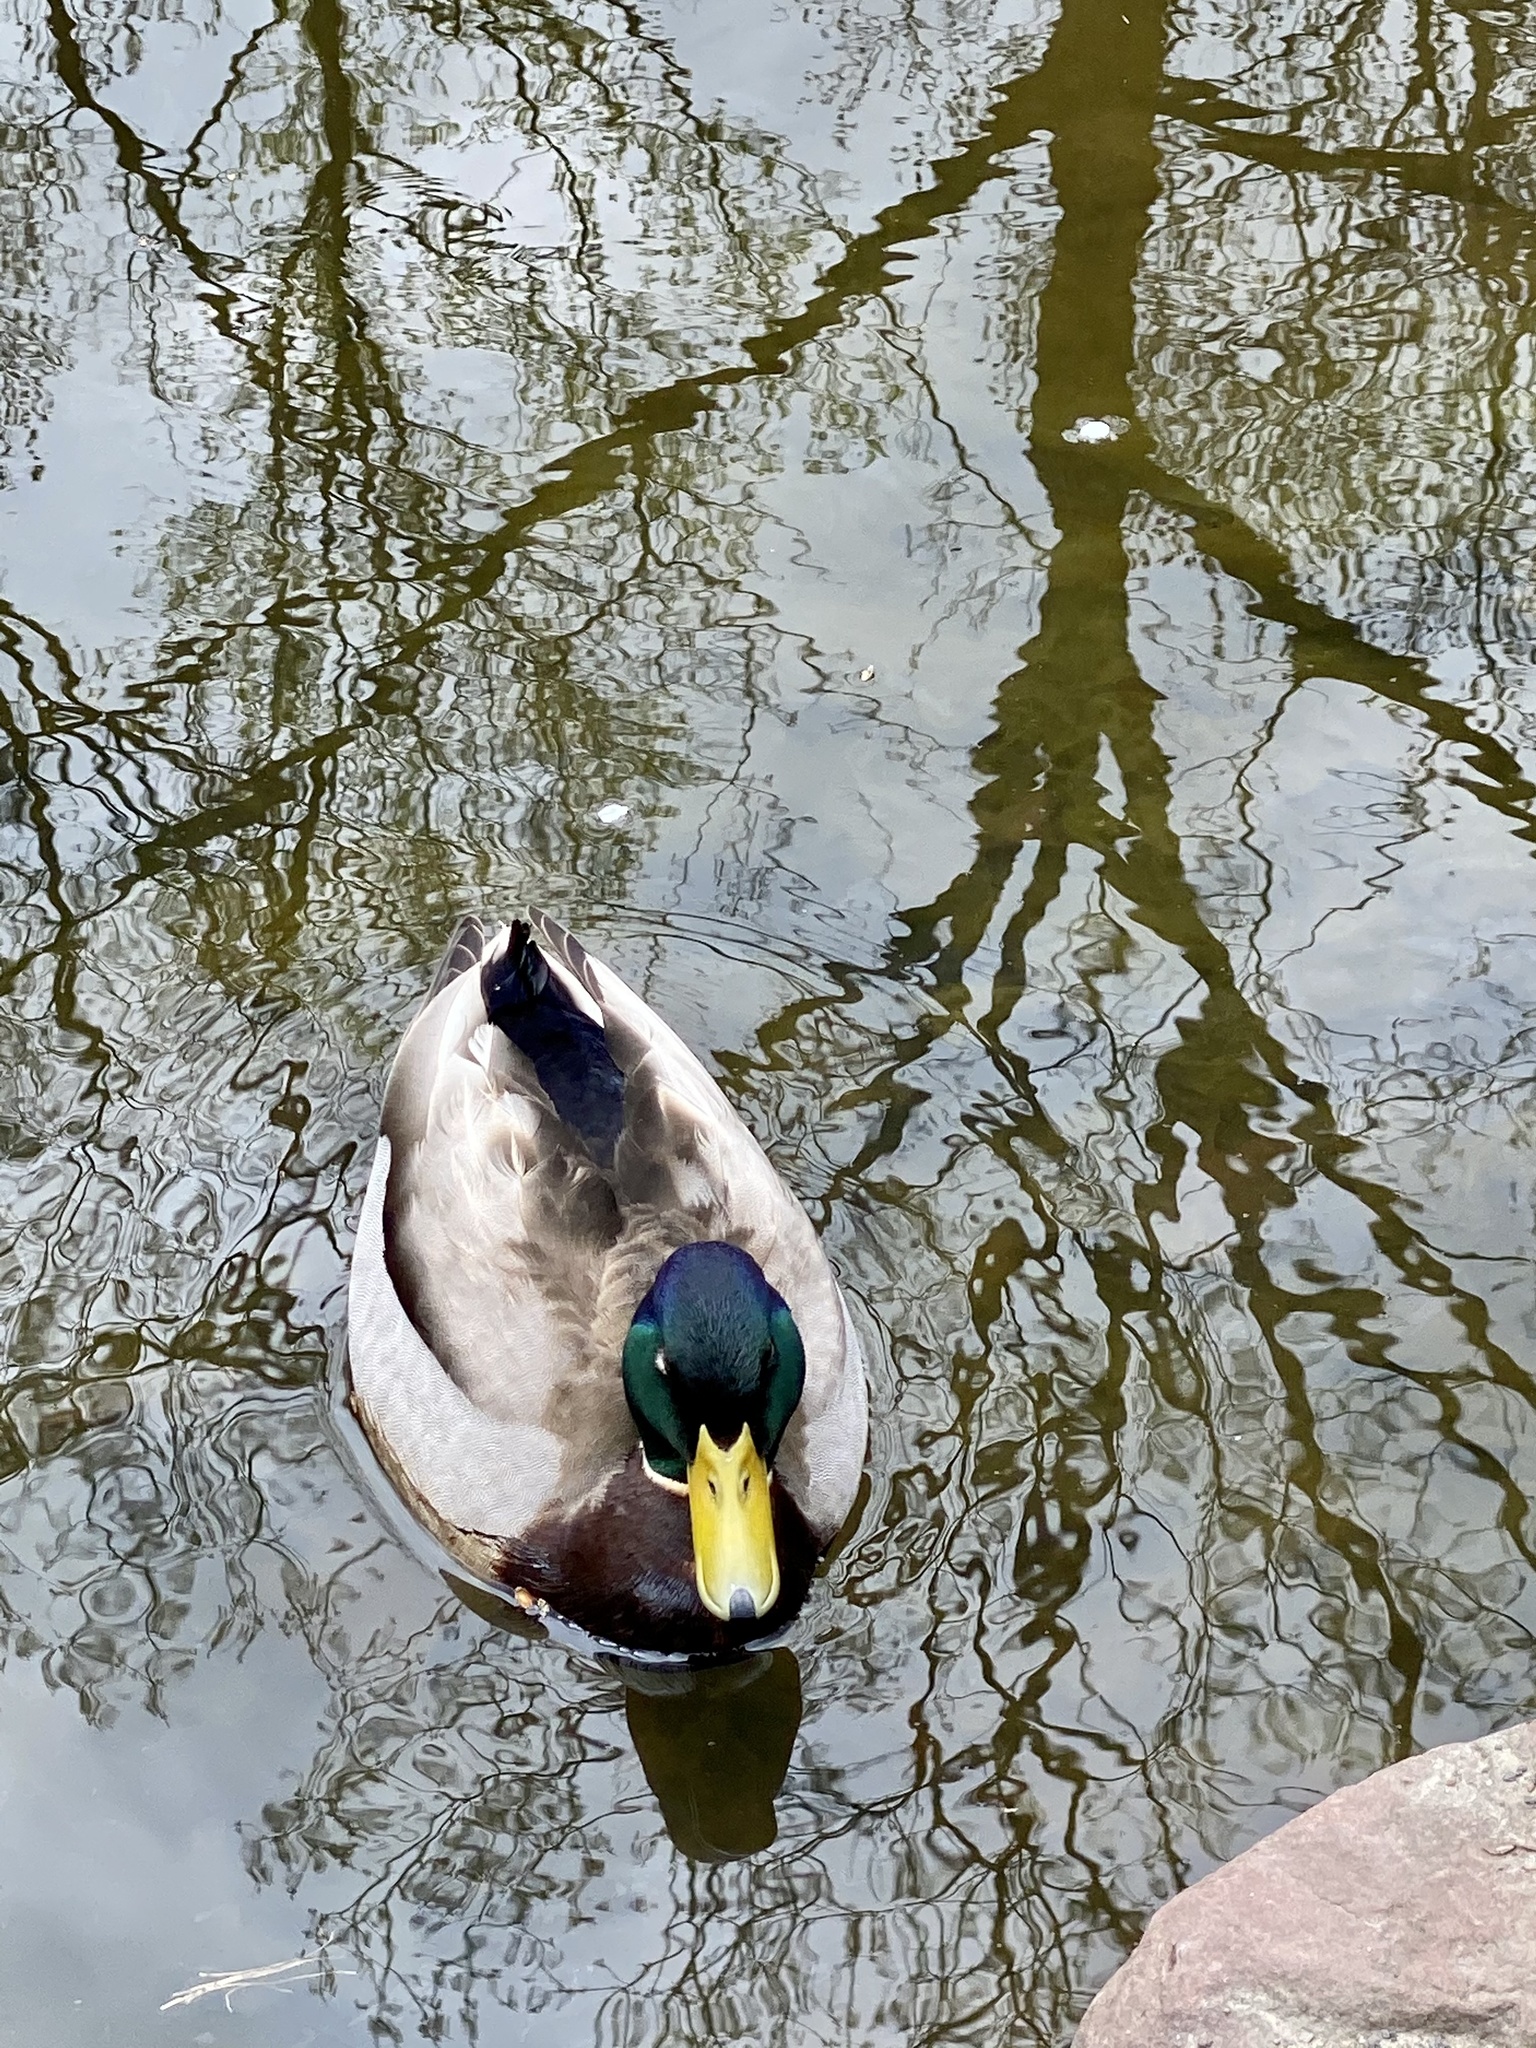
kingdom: Animalia
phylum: Chordata
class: Aves
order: Anseriformes
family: Anatidae
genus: Anas
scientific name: Anas platyrhynchos
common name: Mallard
